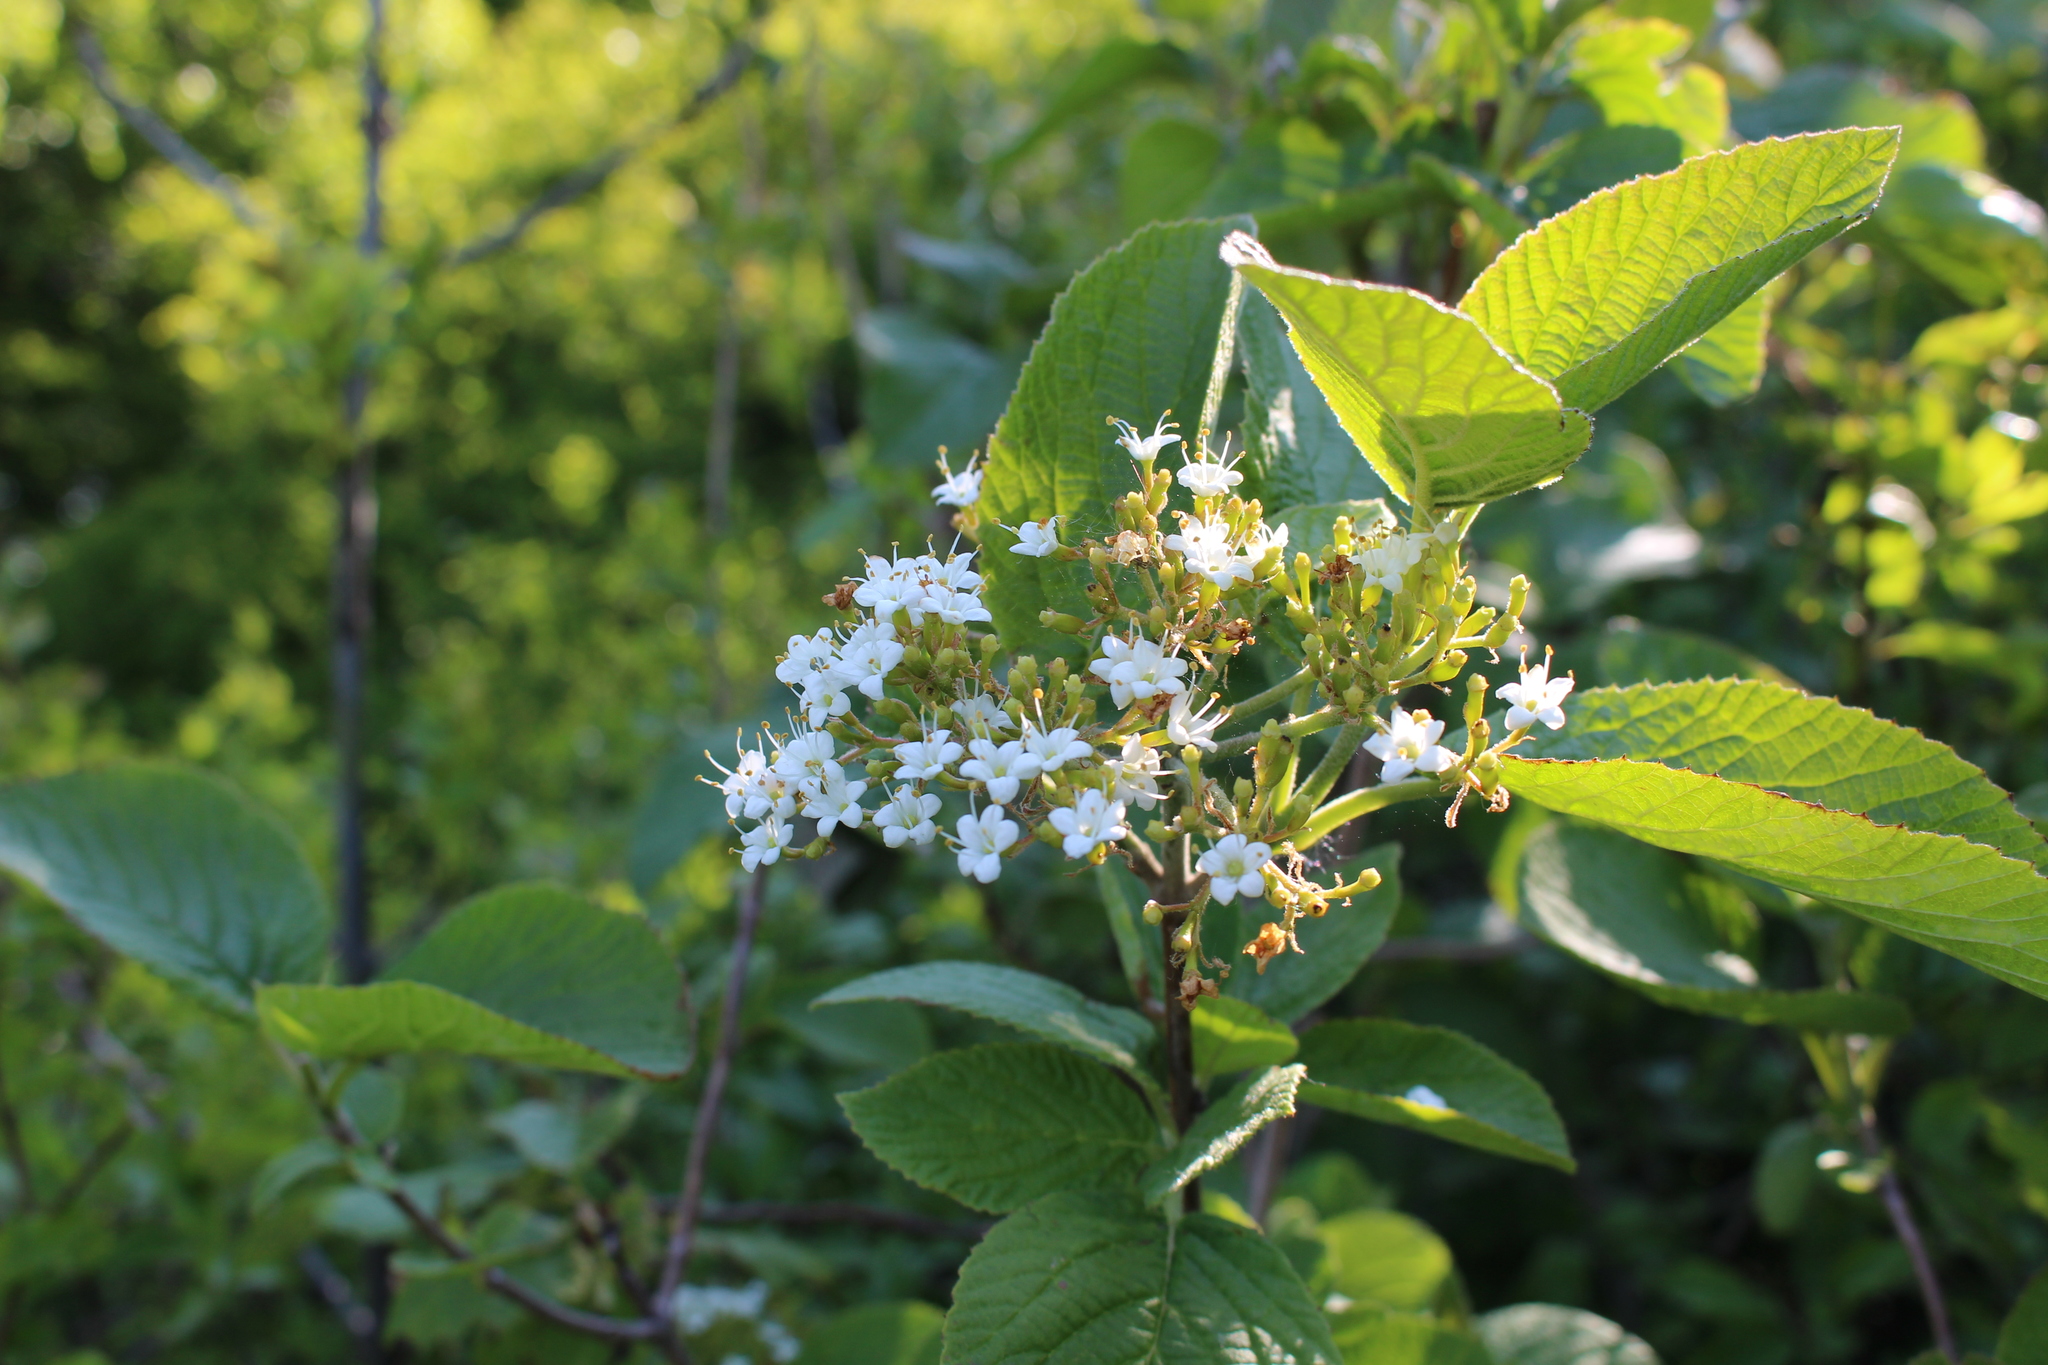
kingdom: Plantae
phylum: Tracheophyta
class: Magnoliopsida
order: Dipsacales
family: Viburnaceae
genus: Viburnum
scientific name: Viburnum lantana
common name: Wayfaring tree
